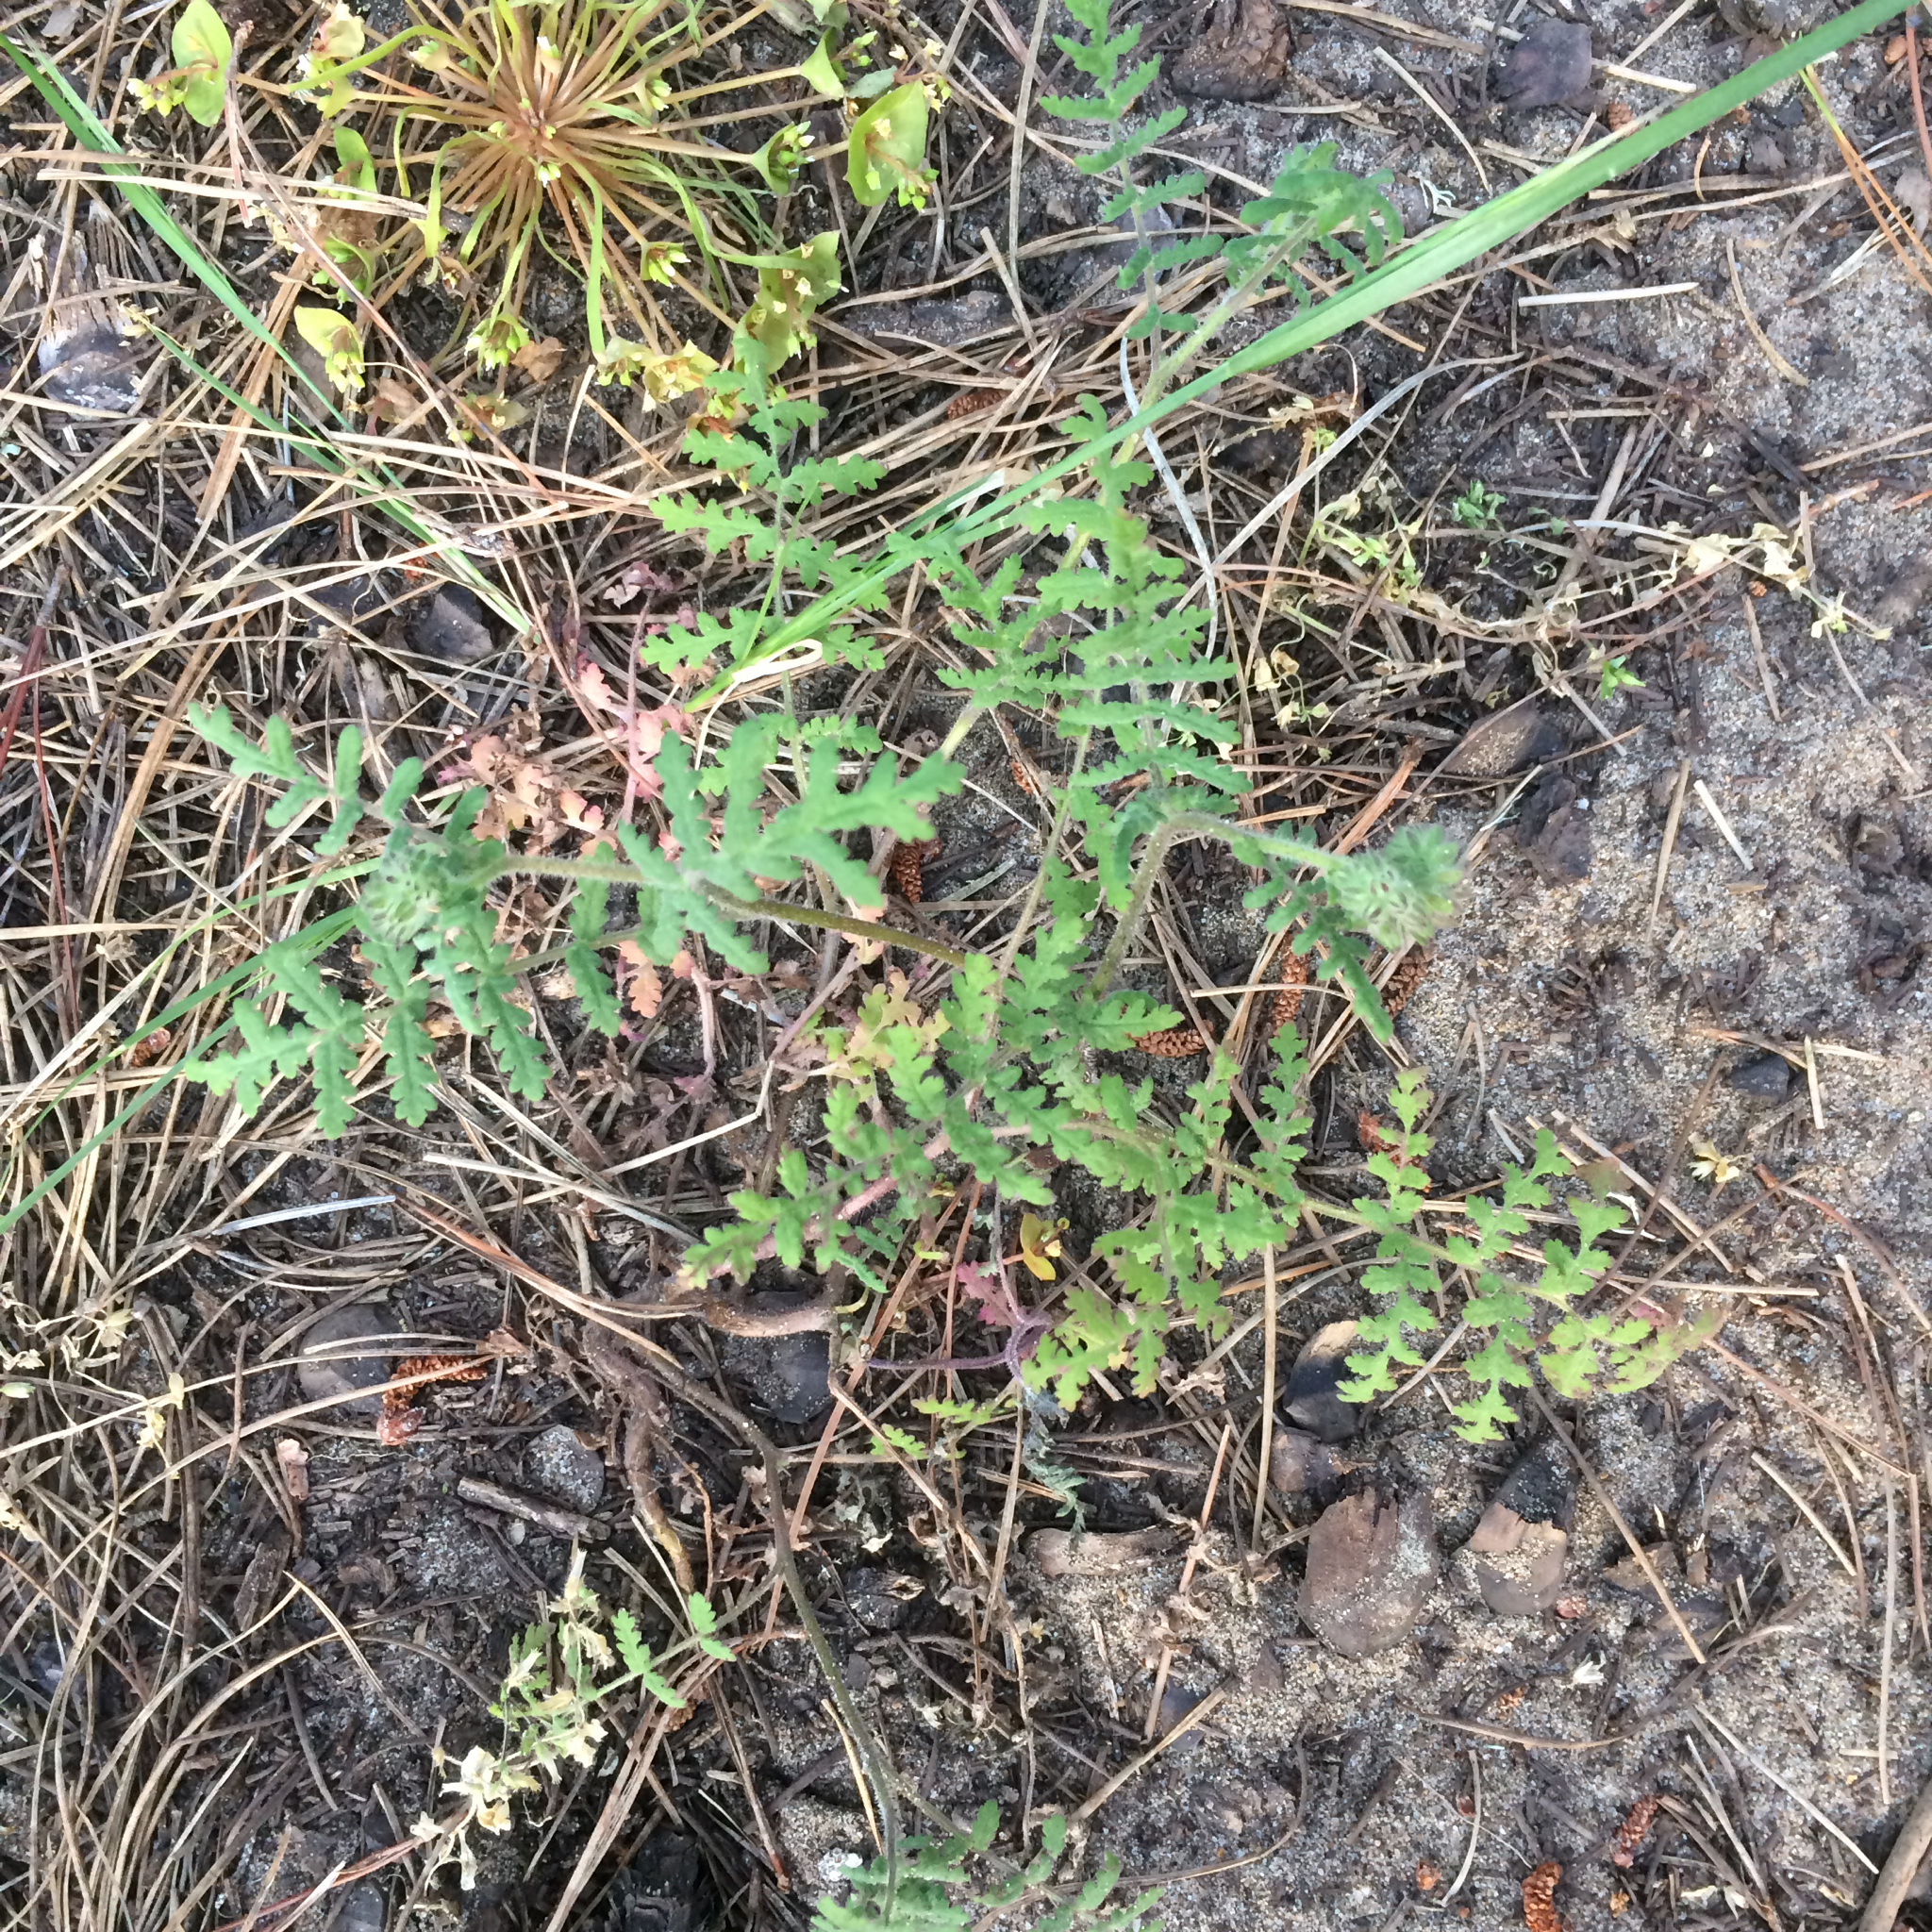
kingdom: Plantae
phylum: Tracheophyta
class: Magnoliopsida
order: Boraginales
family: Hydrophyllaceae
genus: Phacelia
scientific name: Phacelia distans
